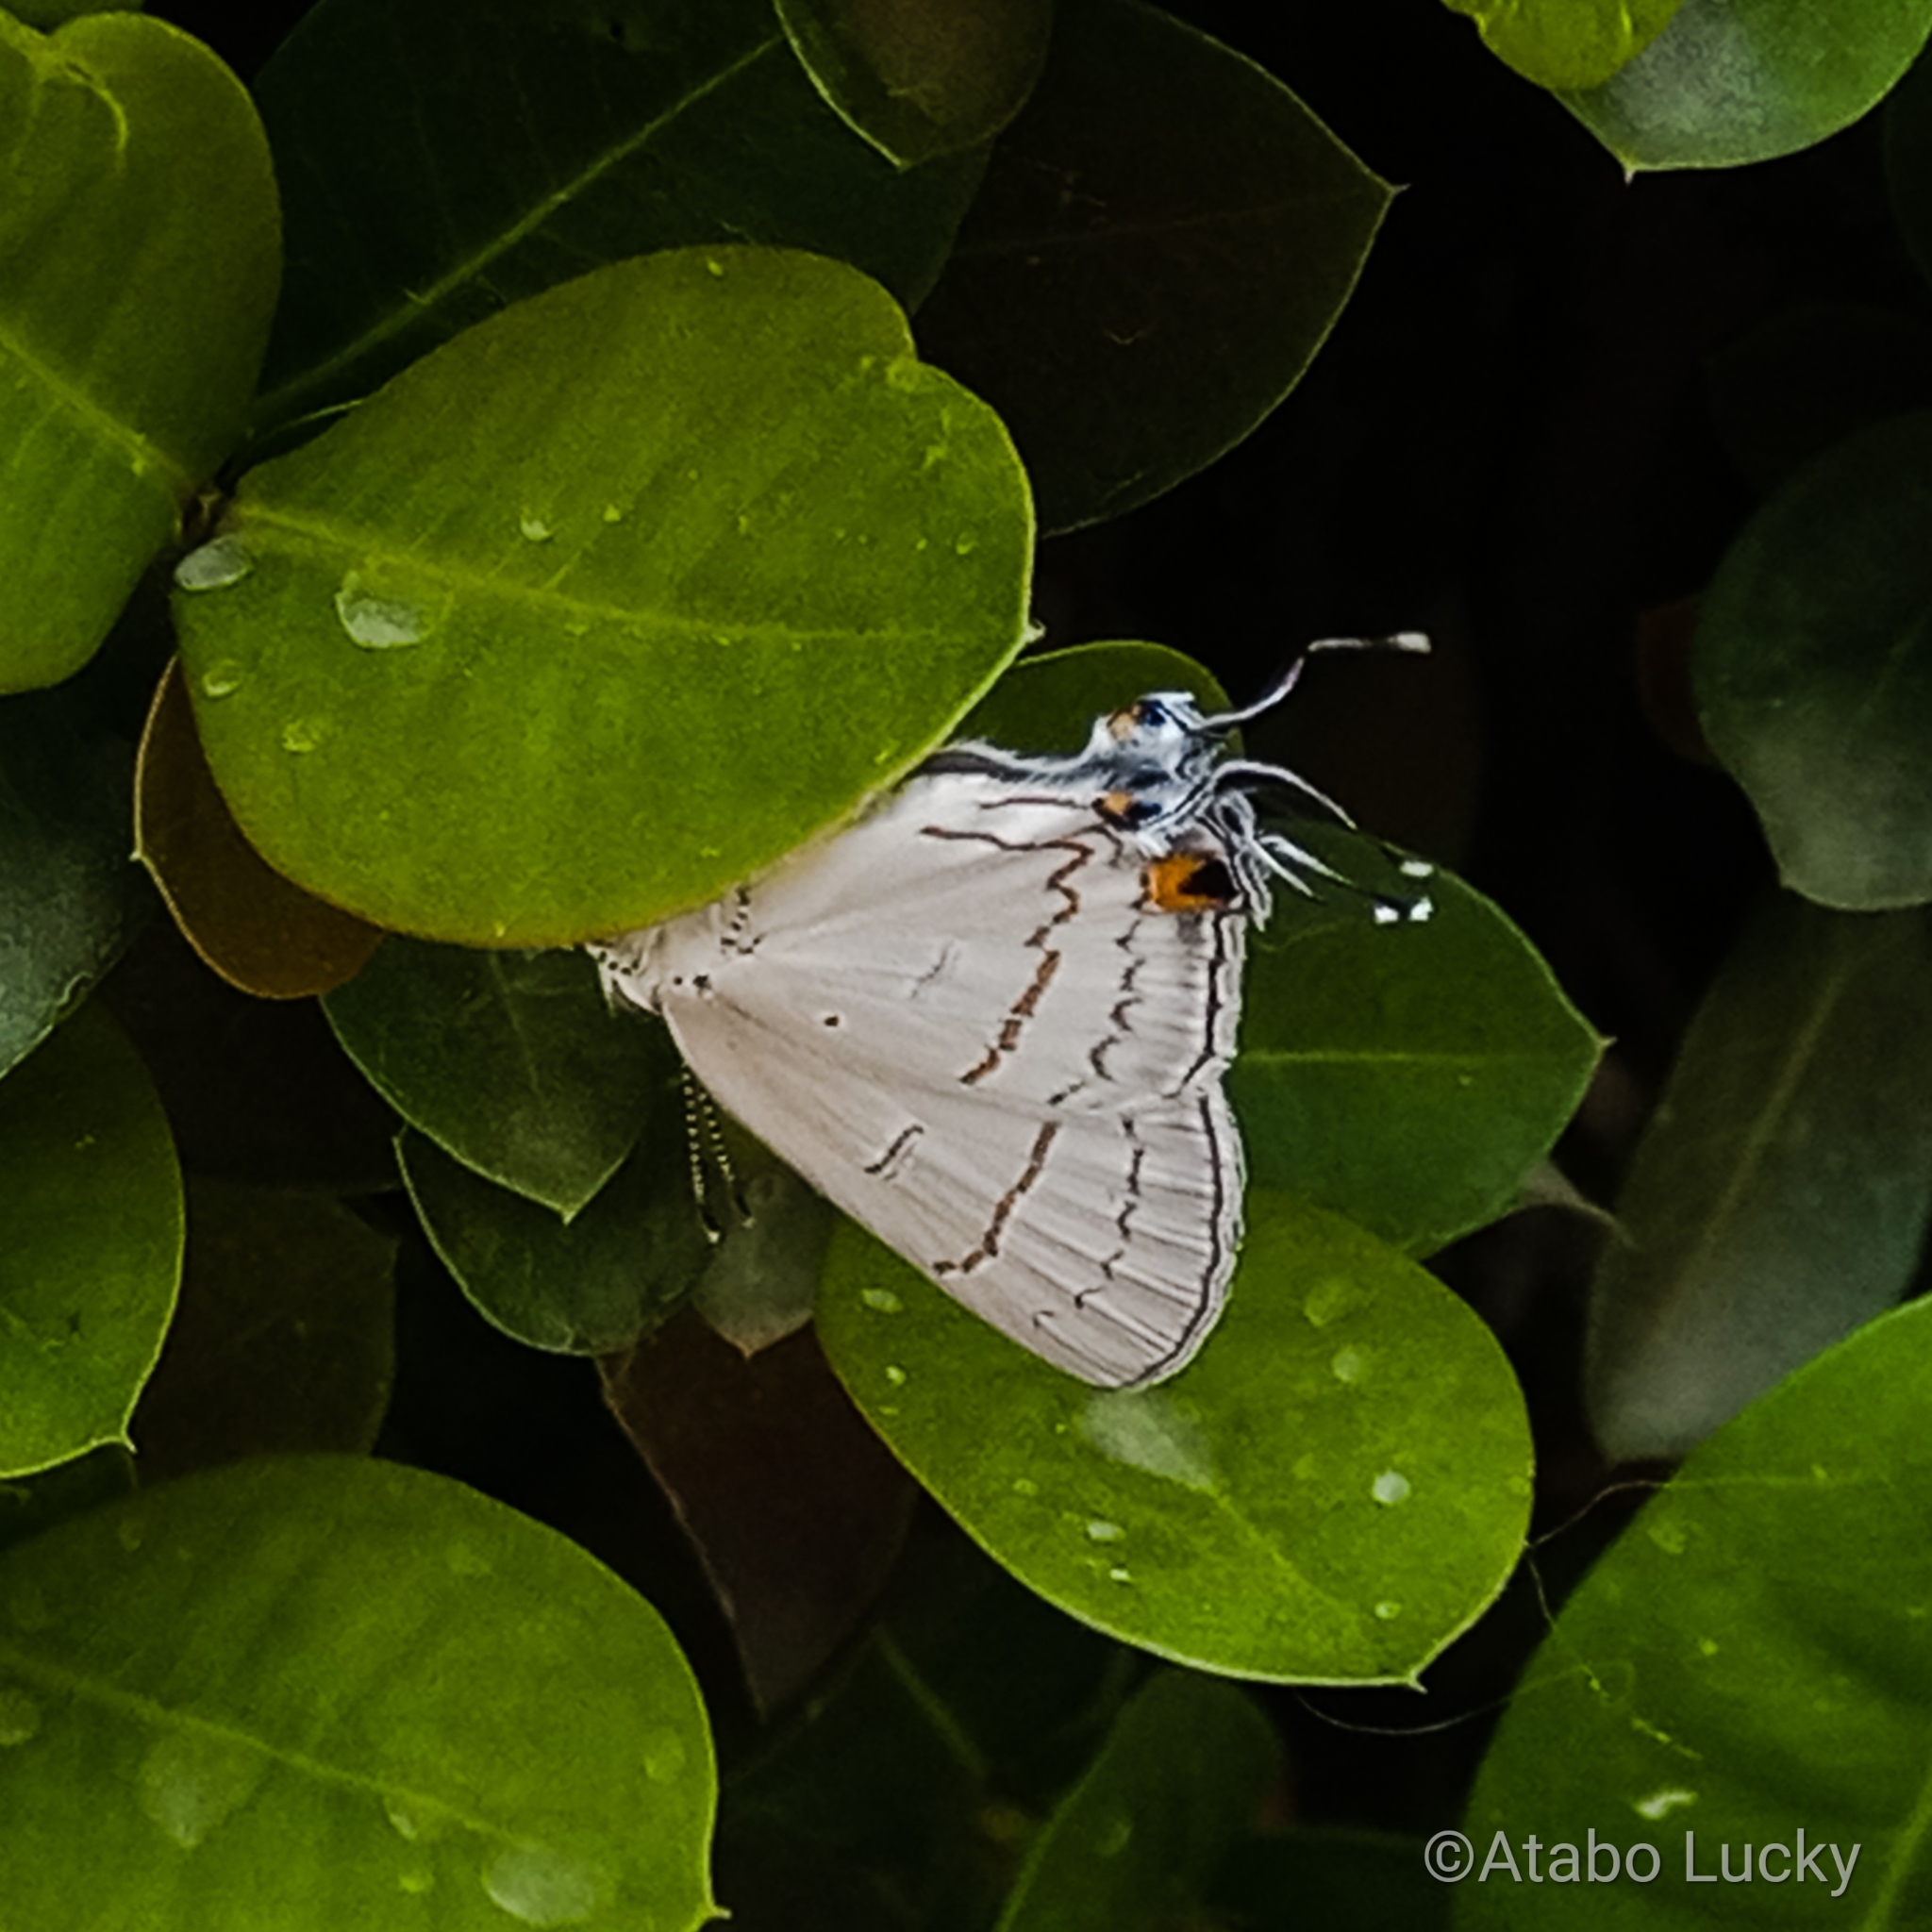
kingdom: Animalia
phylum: Arthropoda
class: Insecta
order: Lepidoptera
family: Lycaenidae
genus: Hypolycaena
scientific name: Hypolycaena philippus
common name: Common hairstreak
